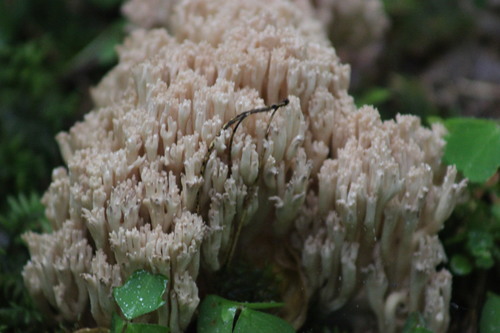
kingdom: Fungi
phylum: Basidiomycota
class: Agaricomycetes
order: Gomphales
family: Gomphaceae
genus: Ramaria
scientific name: Ramaria pallida
